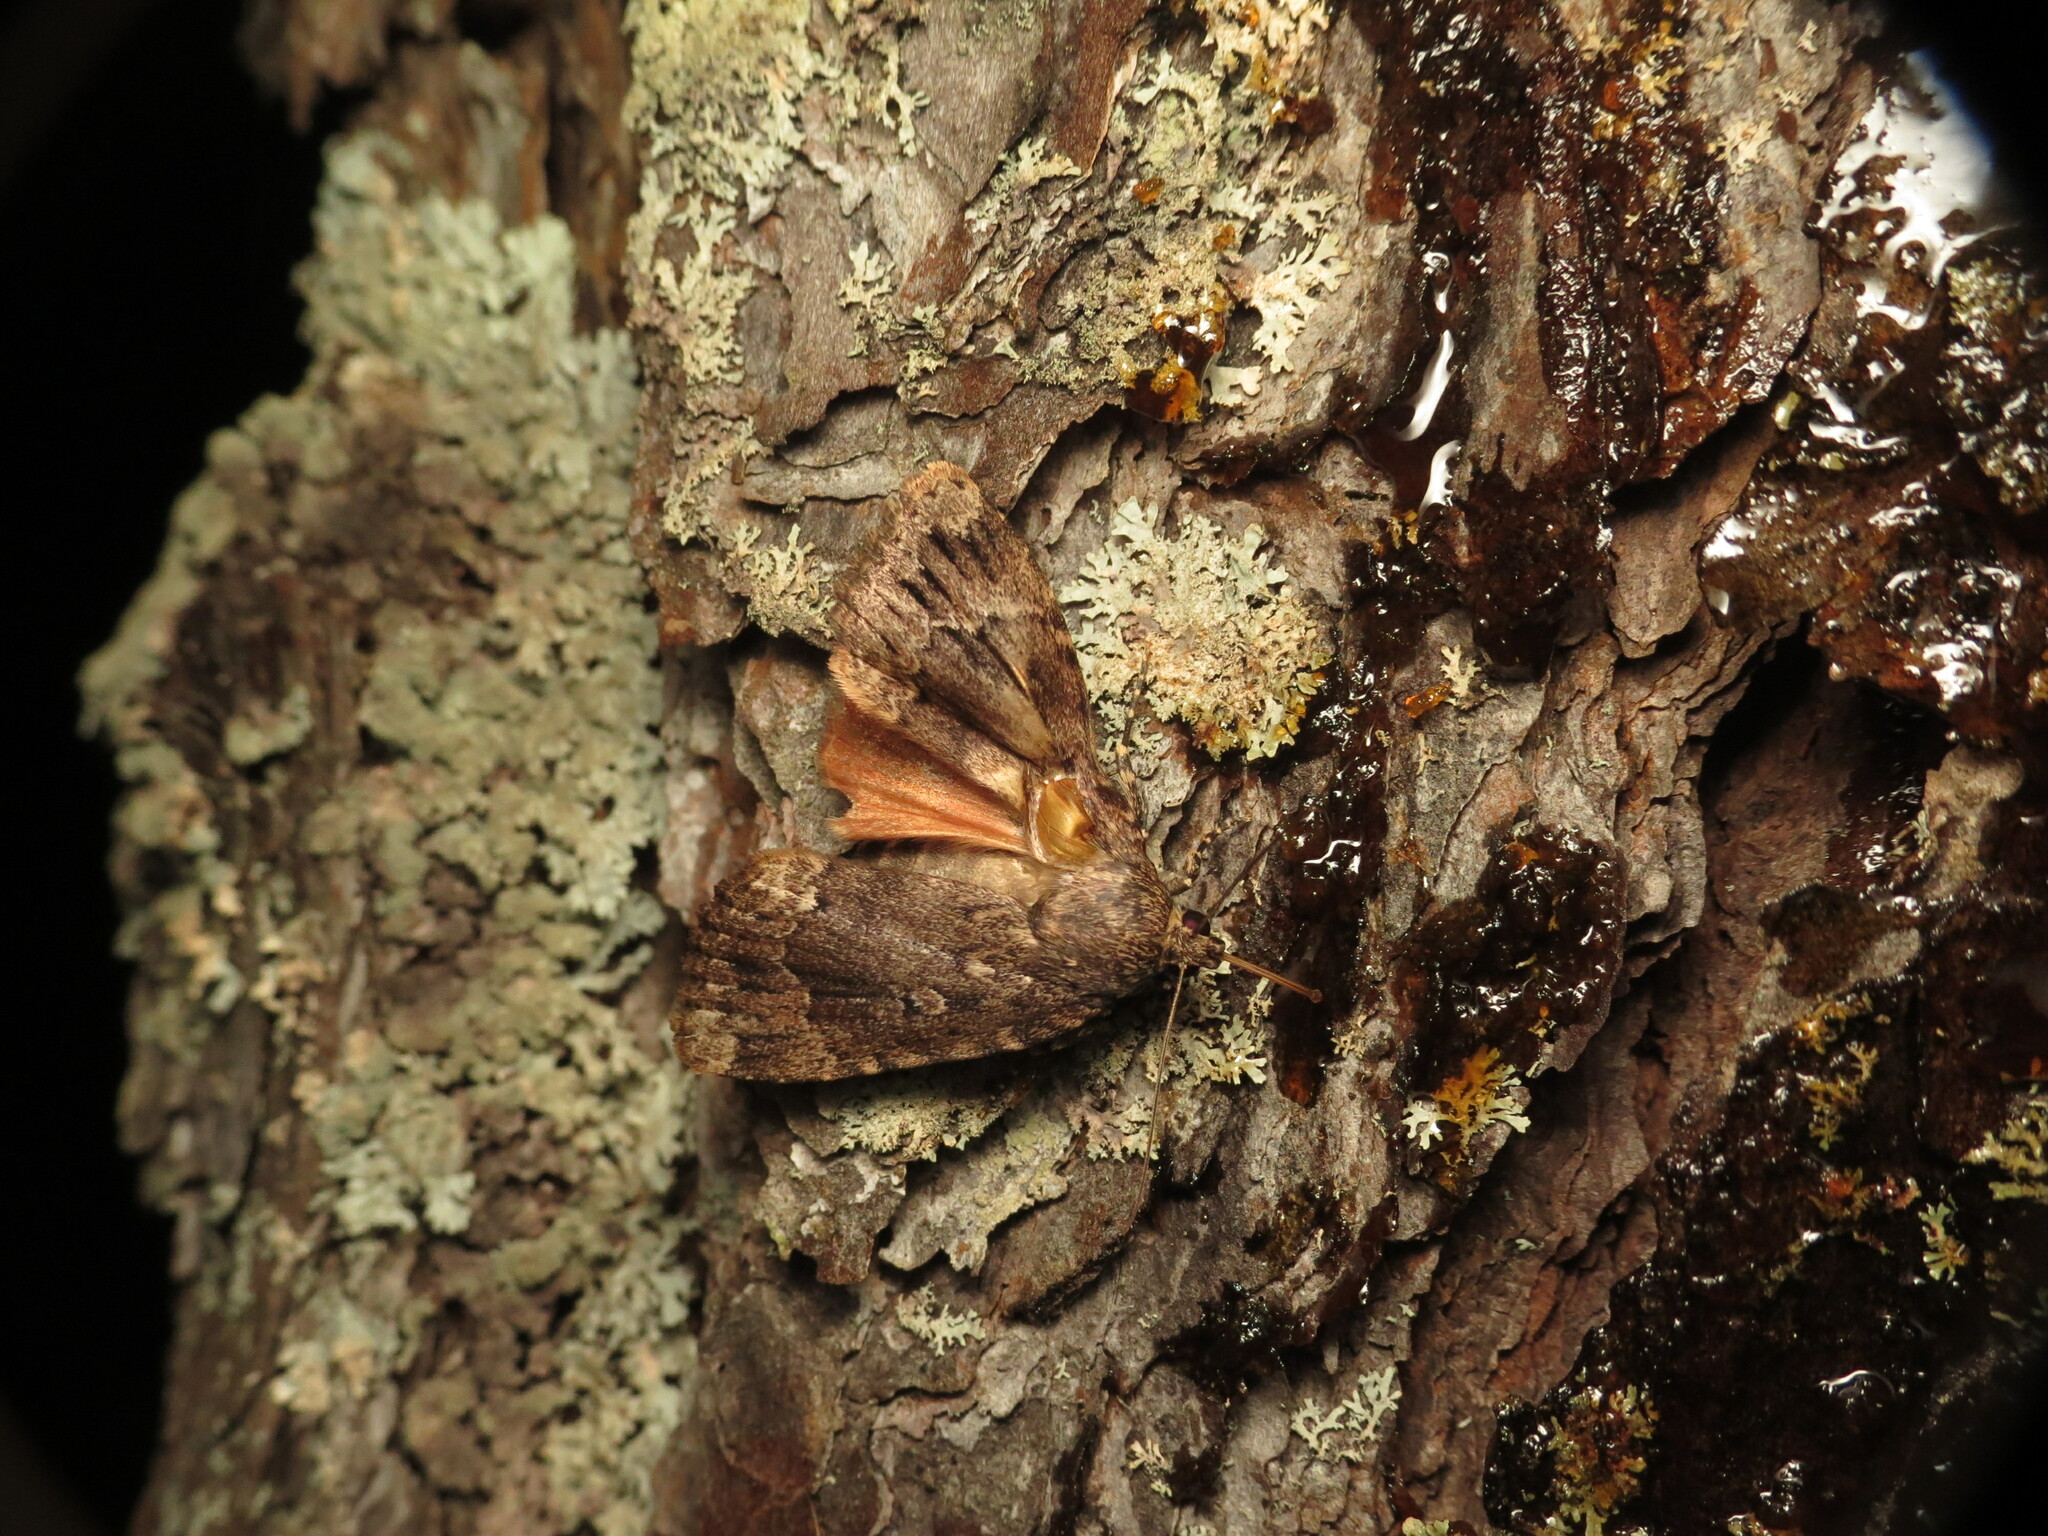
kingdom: Animalia
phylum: Arthropoda
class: Insecta
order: Lepidoptera
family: Noctuidae
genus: Amphipyra
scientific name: Amphipyra pyramidoides
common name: American copper underwing
